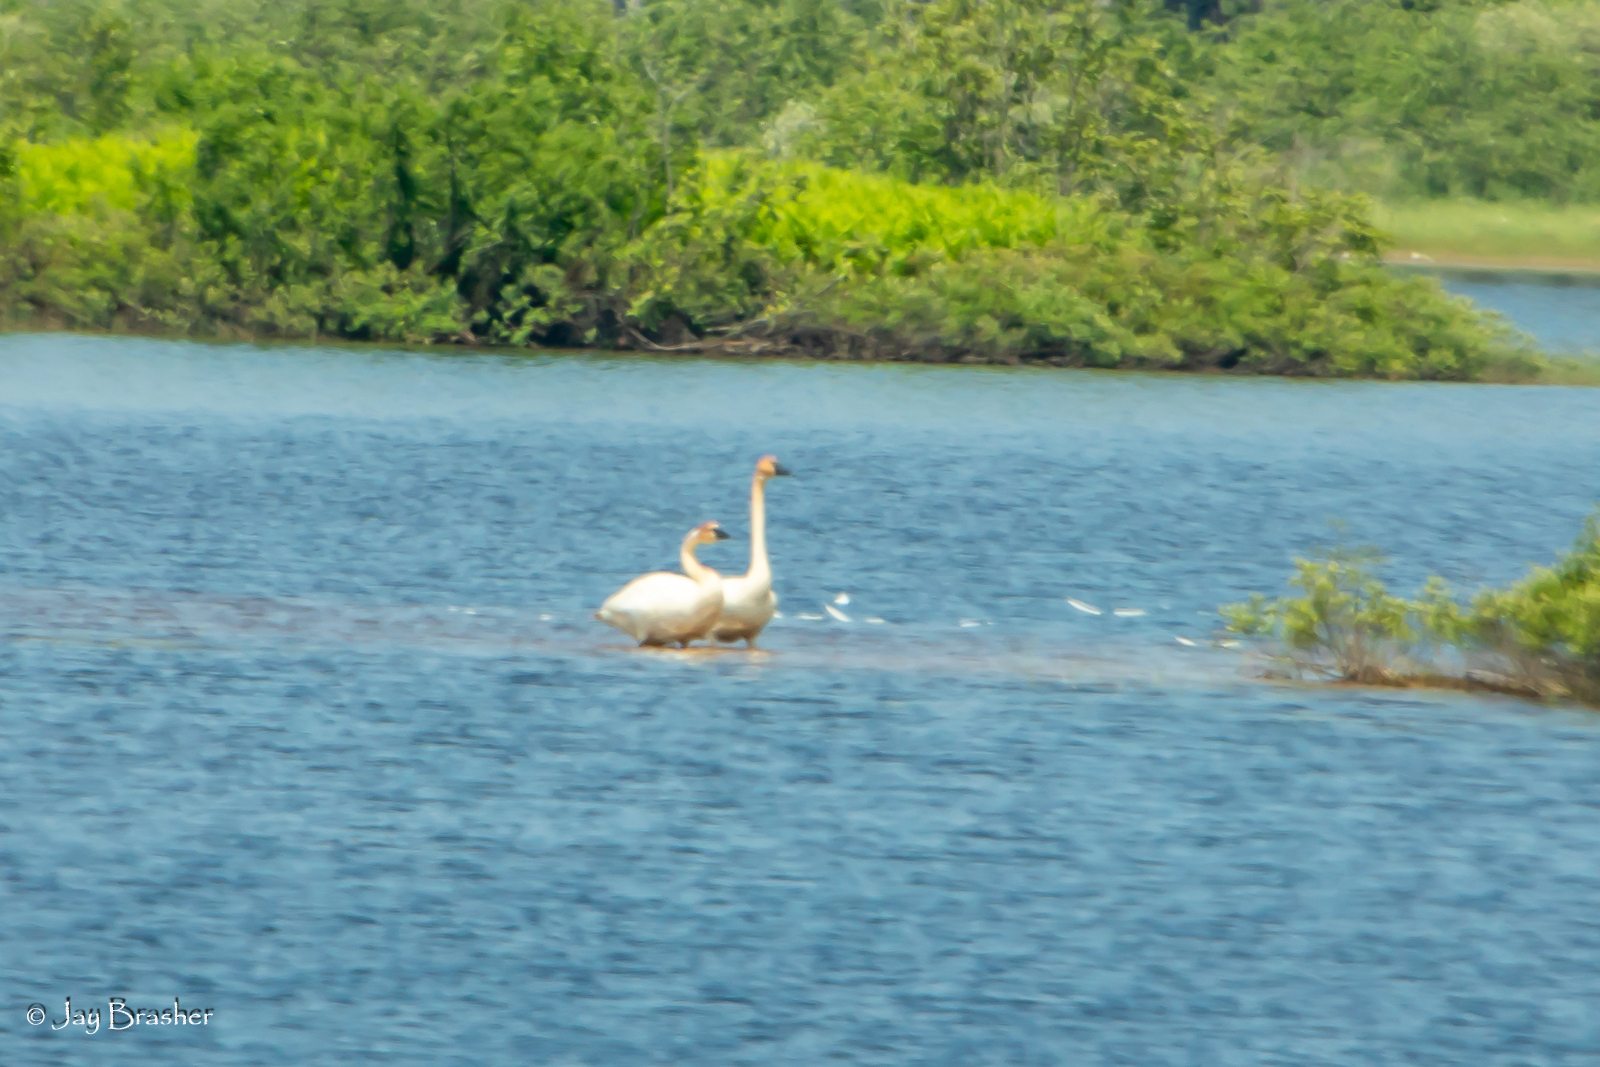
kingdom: Animalia
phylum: Chordata
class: Aves
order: Anseriformes
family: Anatidae
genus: Cygnus
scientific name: Cygnus buccinator
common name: Trumpeter swan
